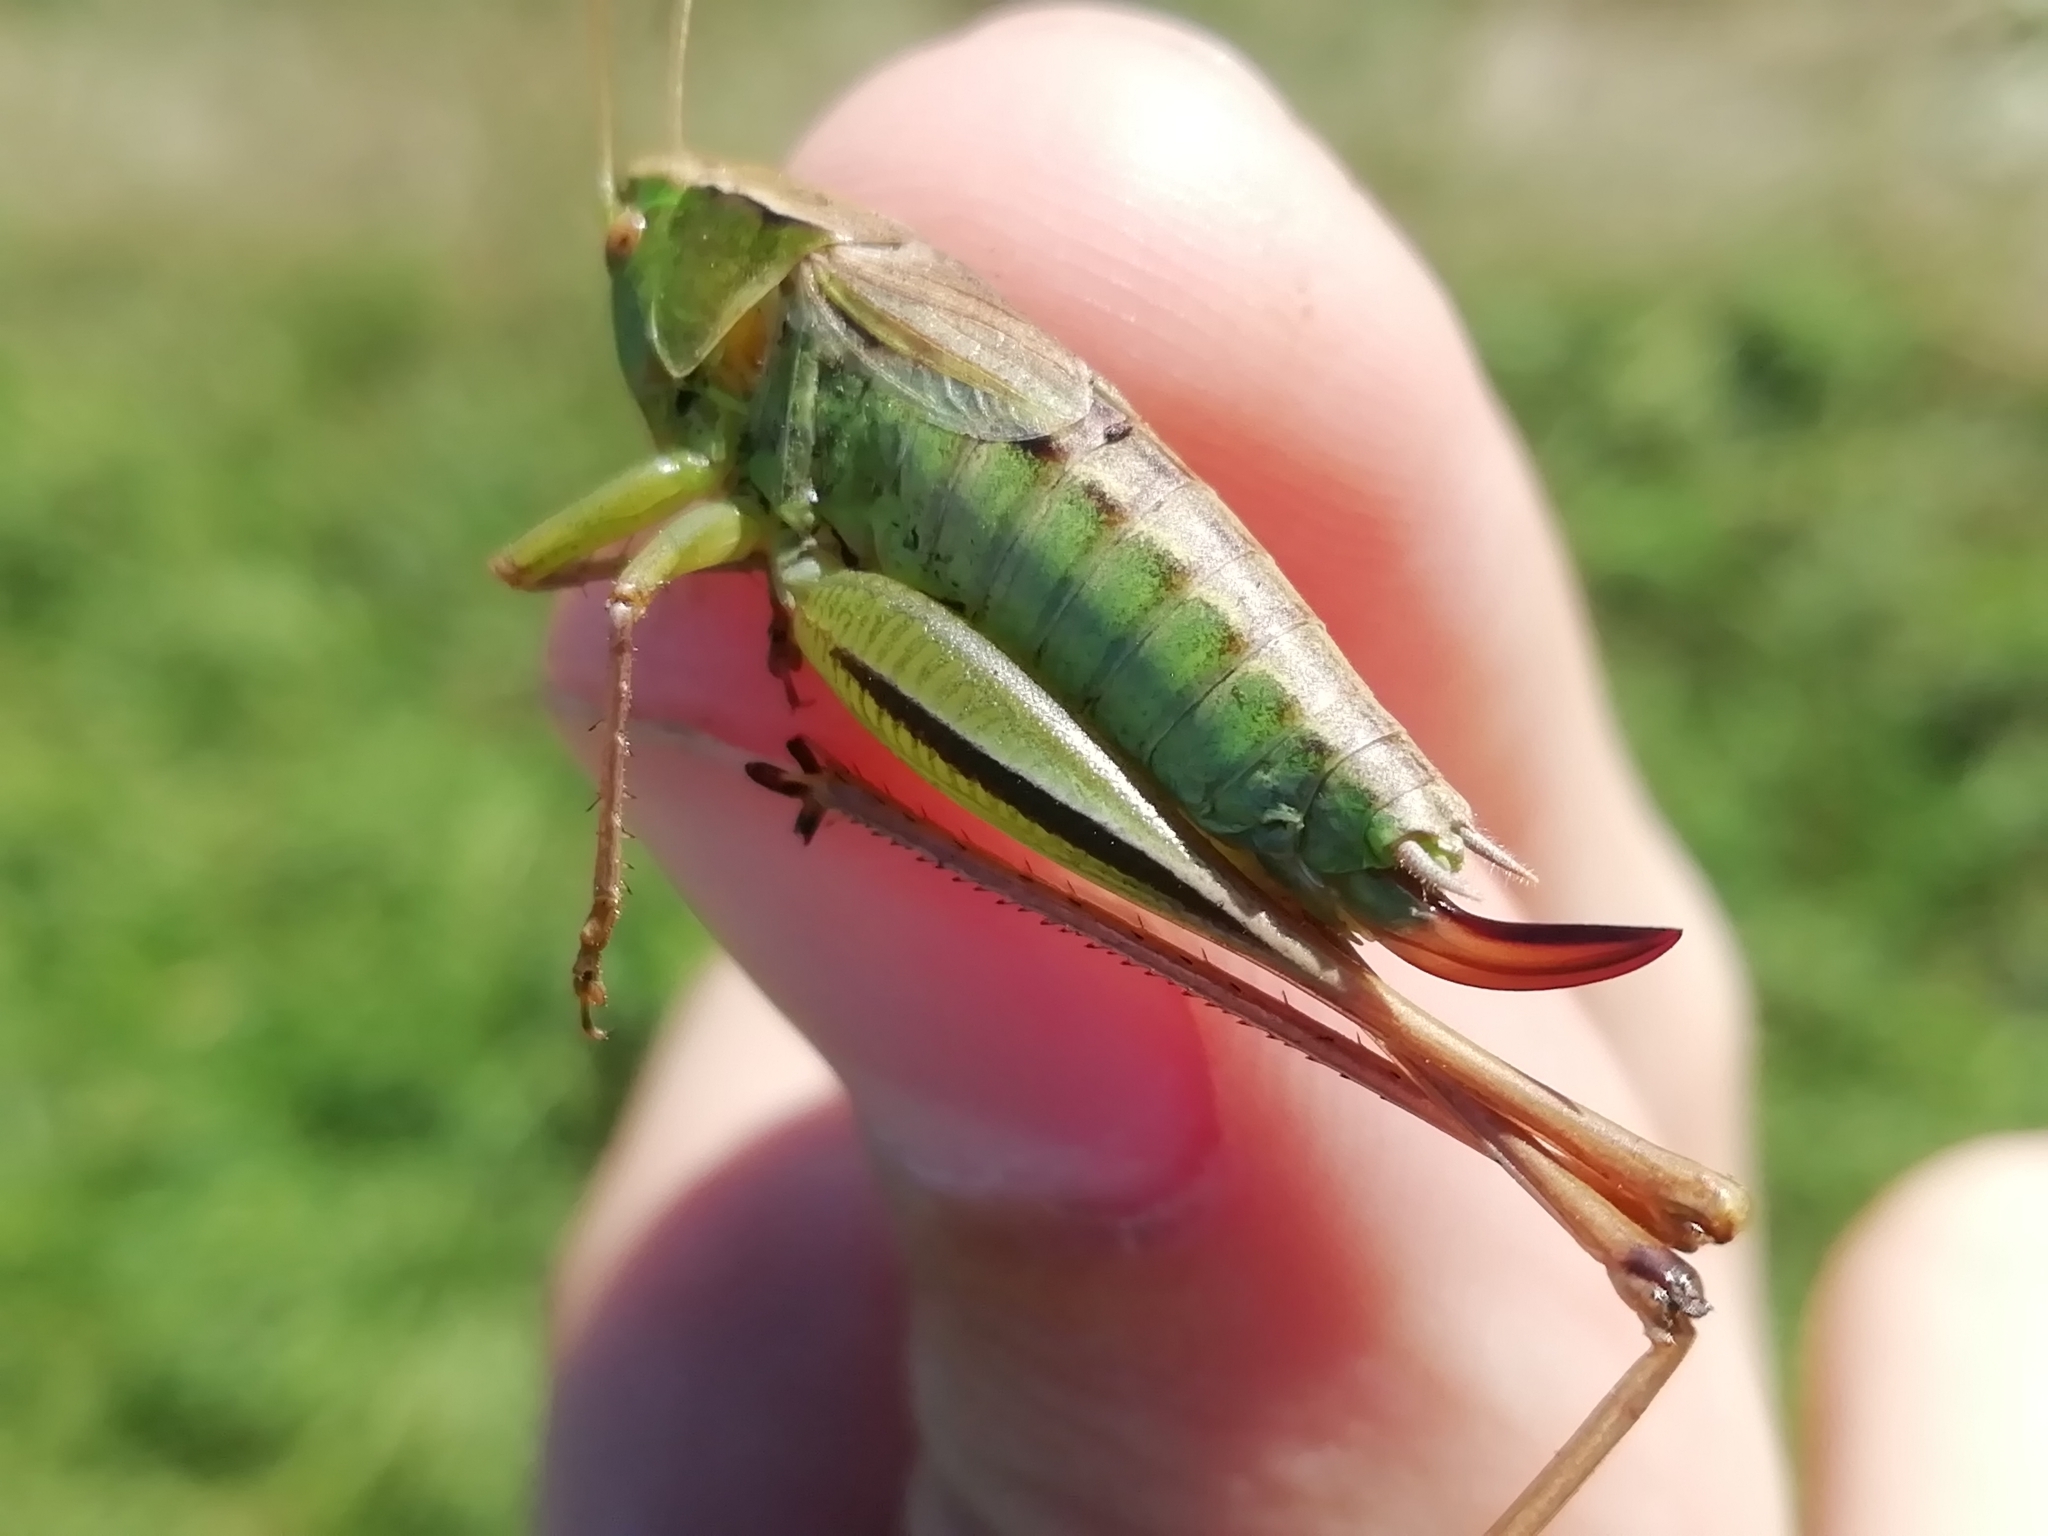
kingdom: Animalia
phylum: Arthropoda
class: Insecta
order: Orthoptera
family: Tettigoniidae
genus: Bicolorana
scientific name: Bicolorana bicolor
